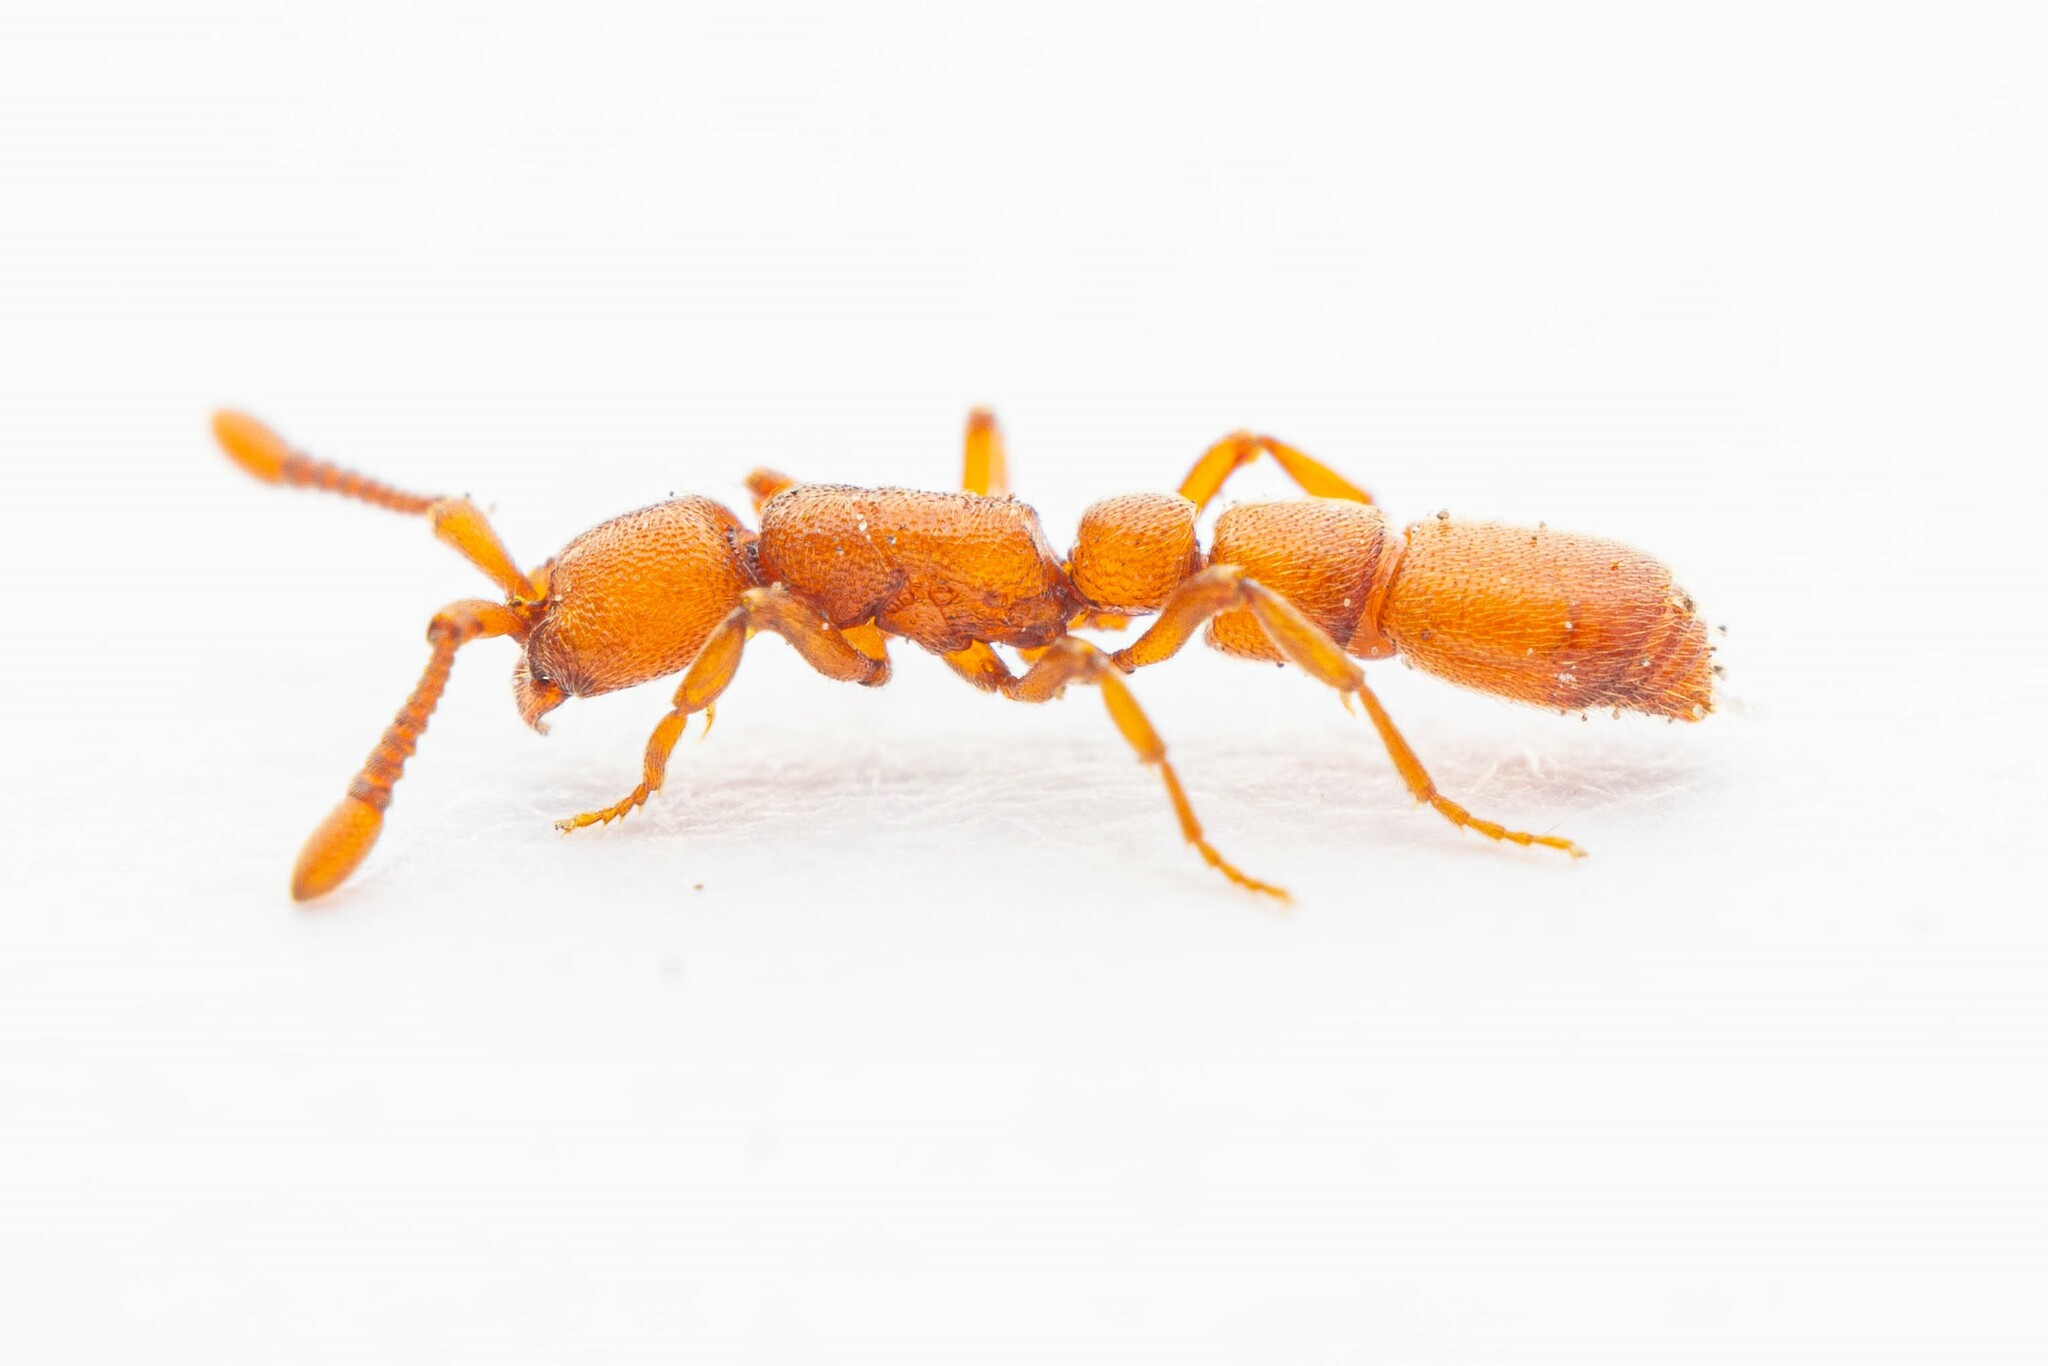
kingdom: Animalia
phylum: Arthropoda
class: Insecta
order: Hymenoptera
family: Formicidae
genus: Syscia
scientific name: Syscia madrensis
